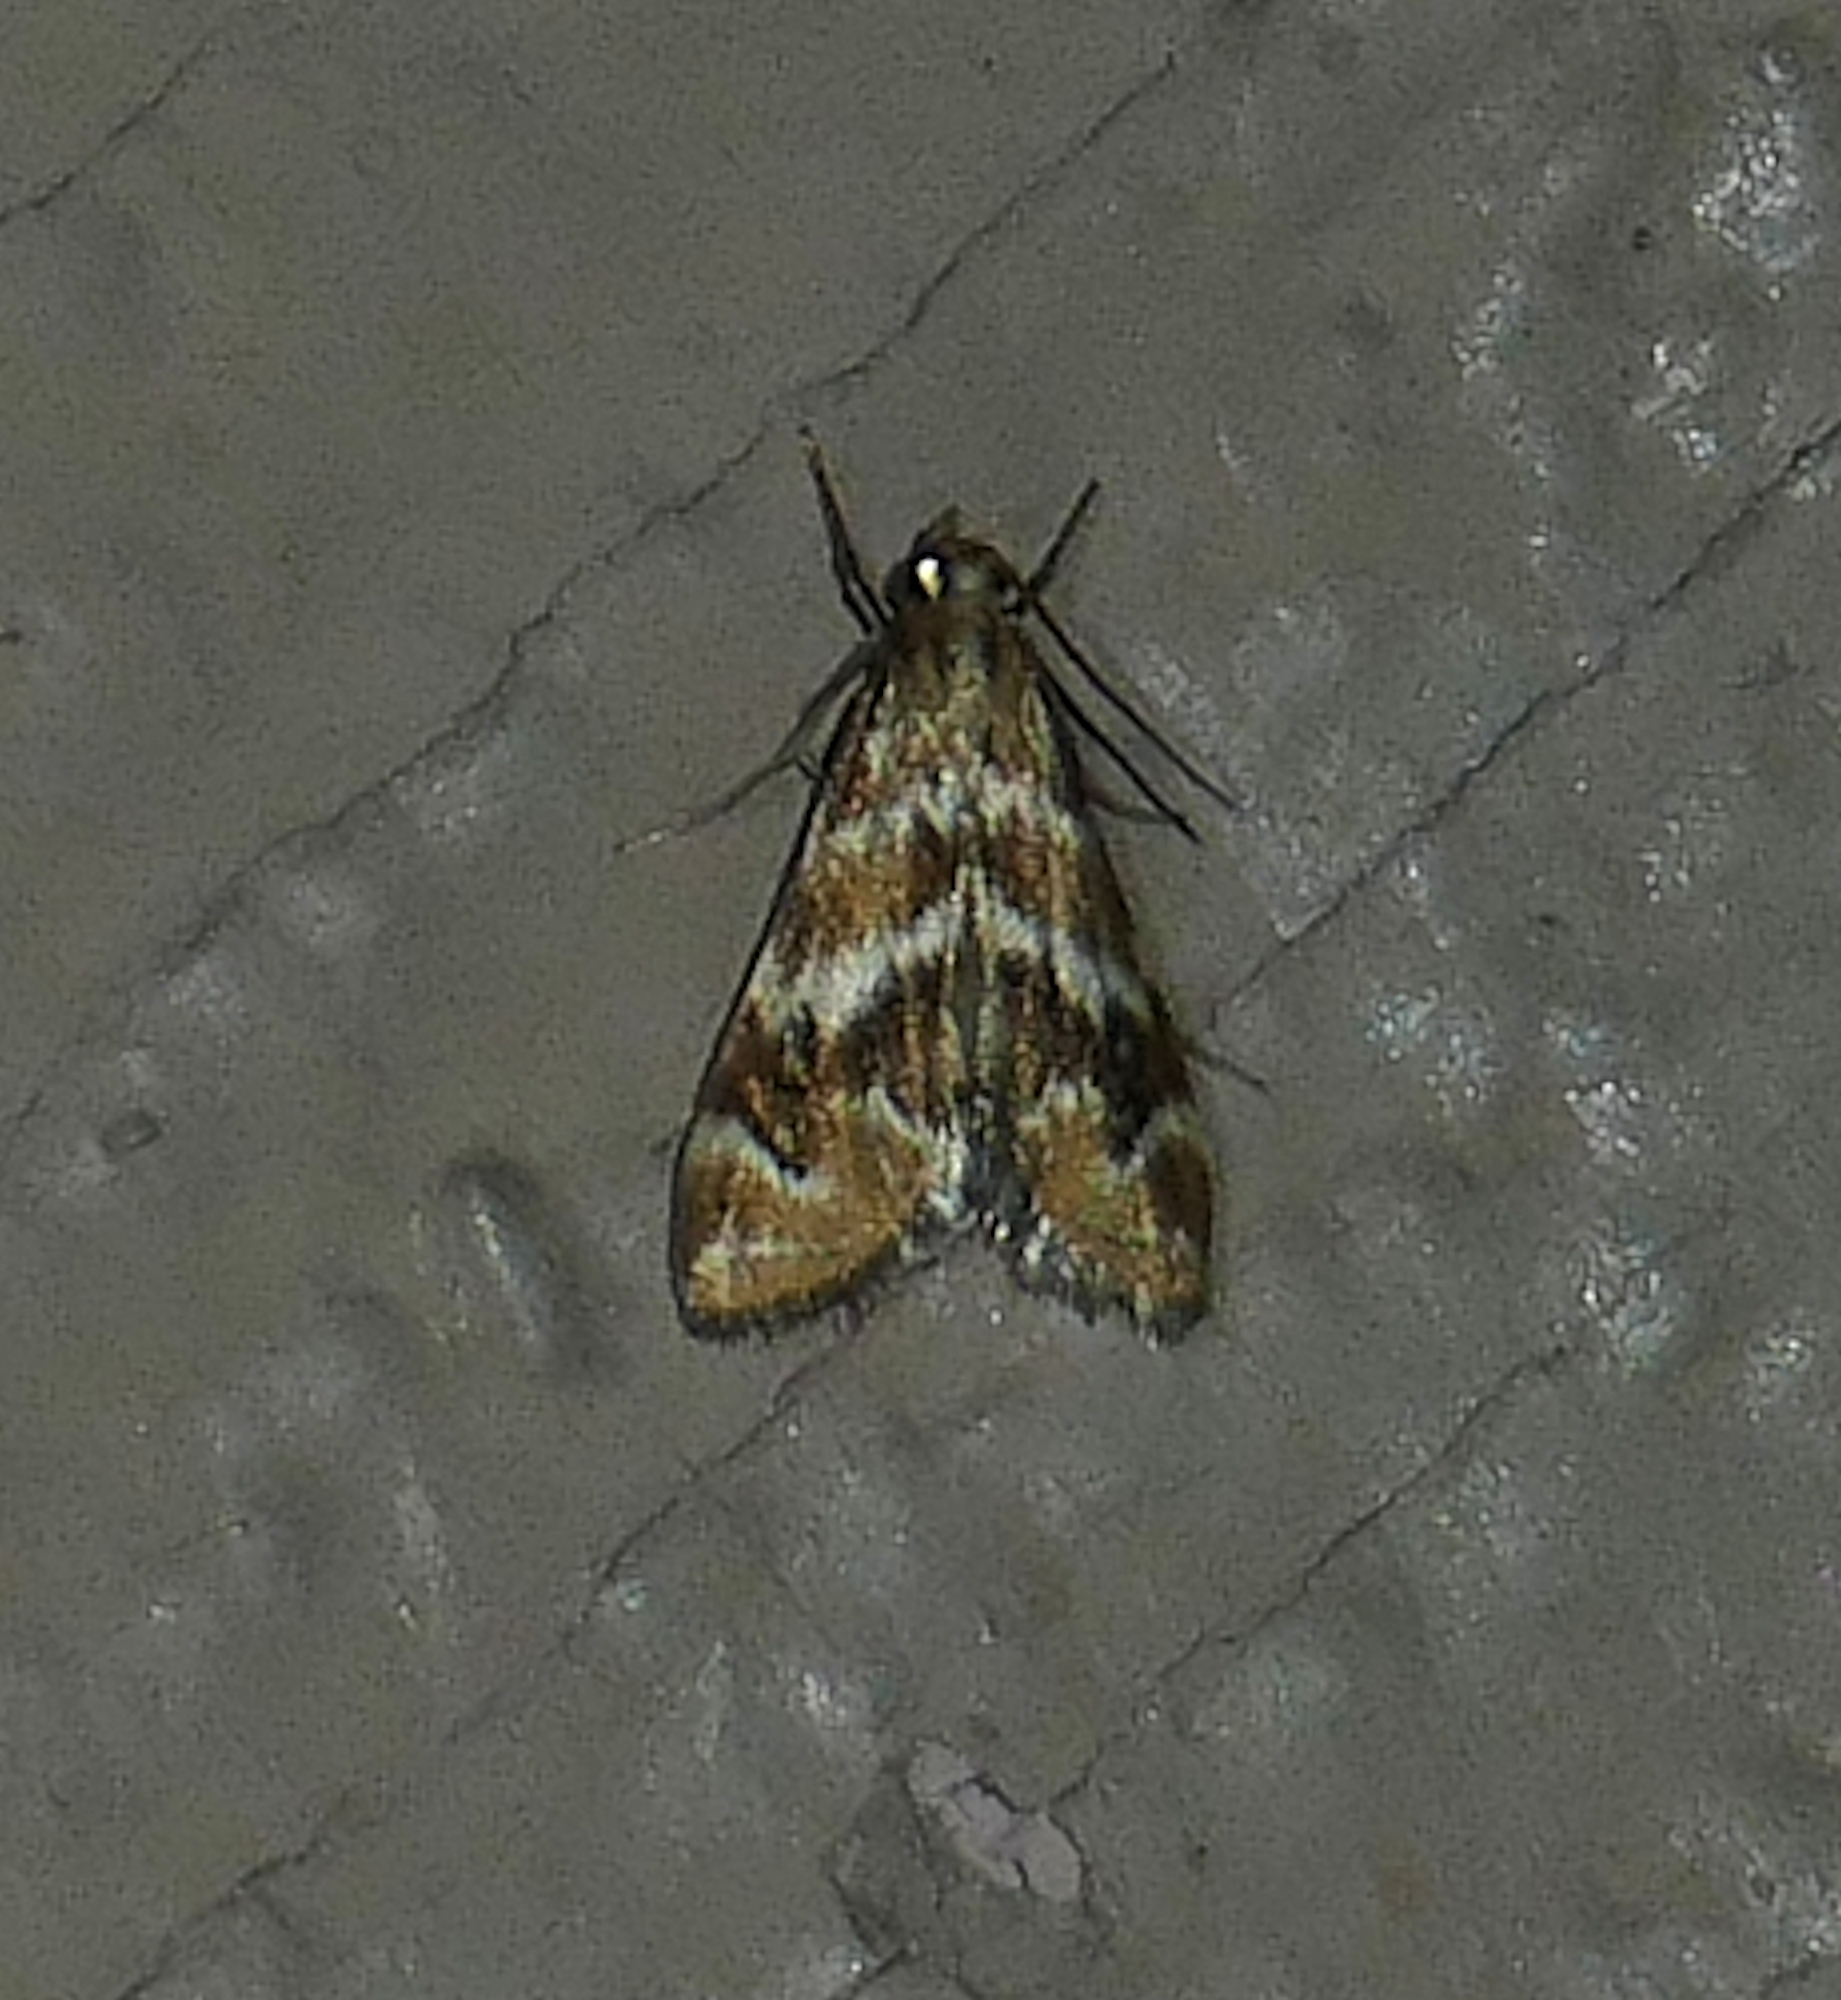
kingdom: Animalia
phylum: Arthropoda
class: Insecta
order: Lepidoptera
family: Crambidae
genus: Petrophila
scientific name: Petrophila avernalis
